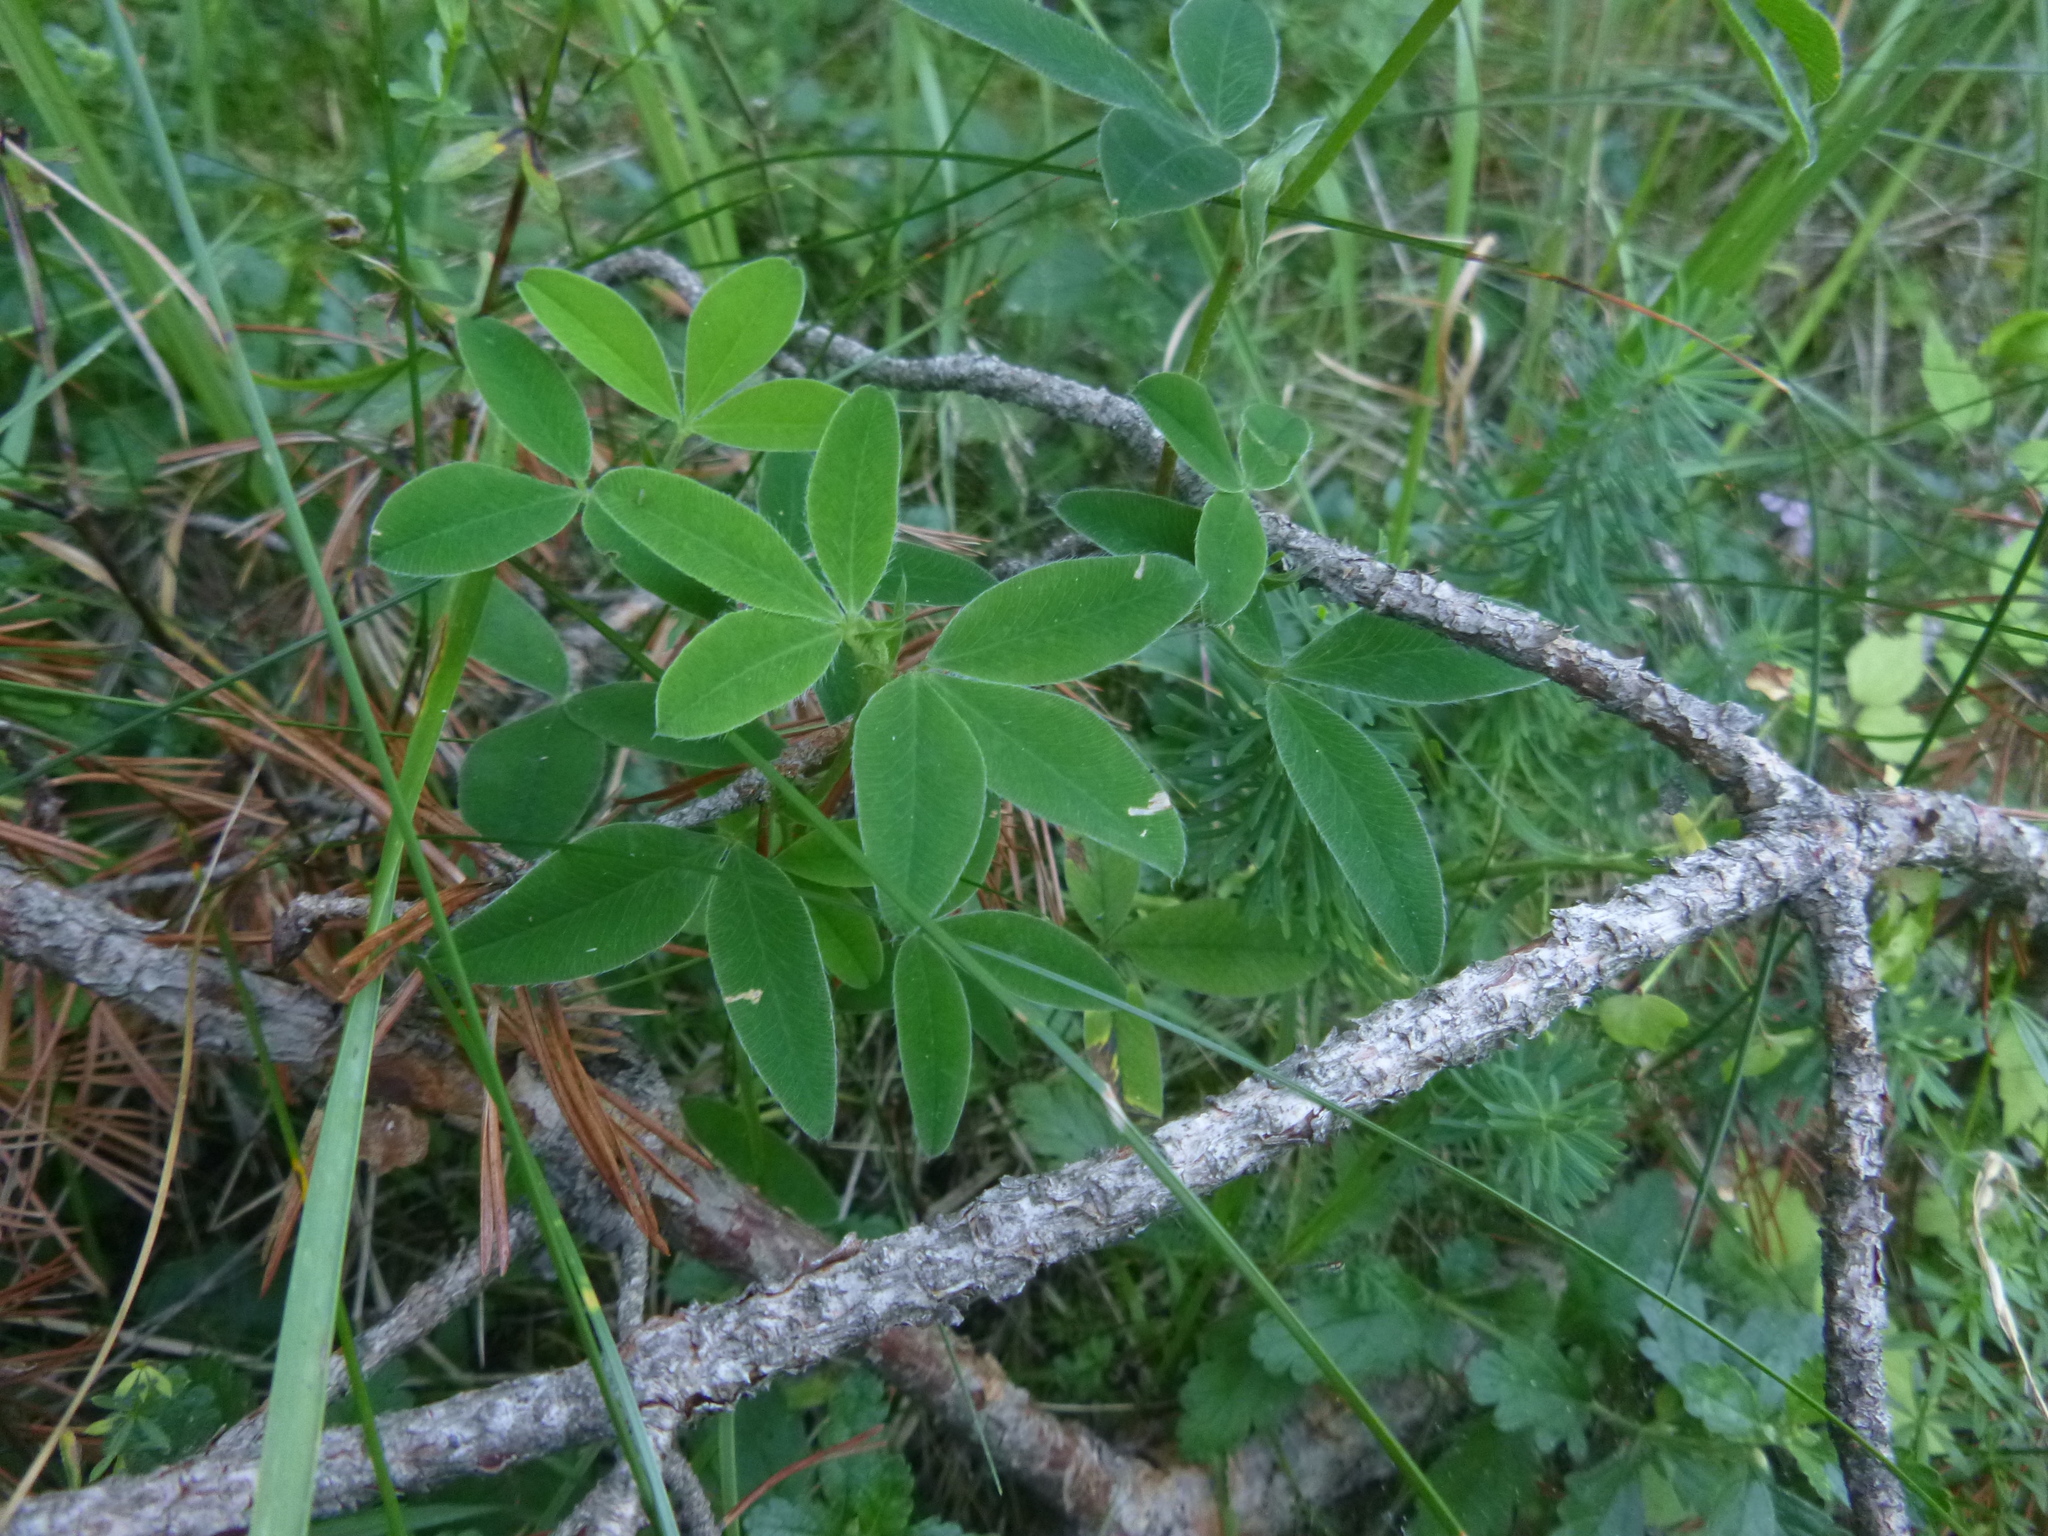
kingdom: Plantae
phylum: Tracheophyta
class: Magnoliopsida
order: Fabales
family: Fabaceae
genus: Trifolium
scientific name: Trifolium medium
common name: Zigzag clover
